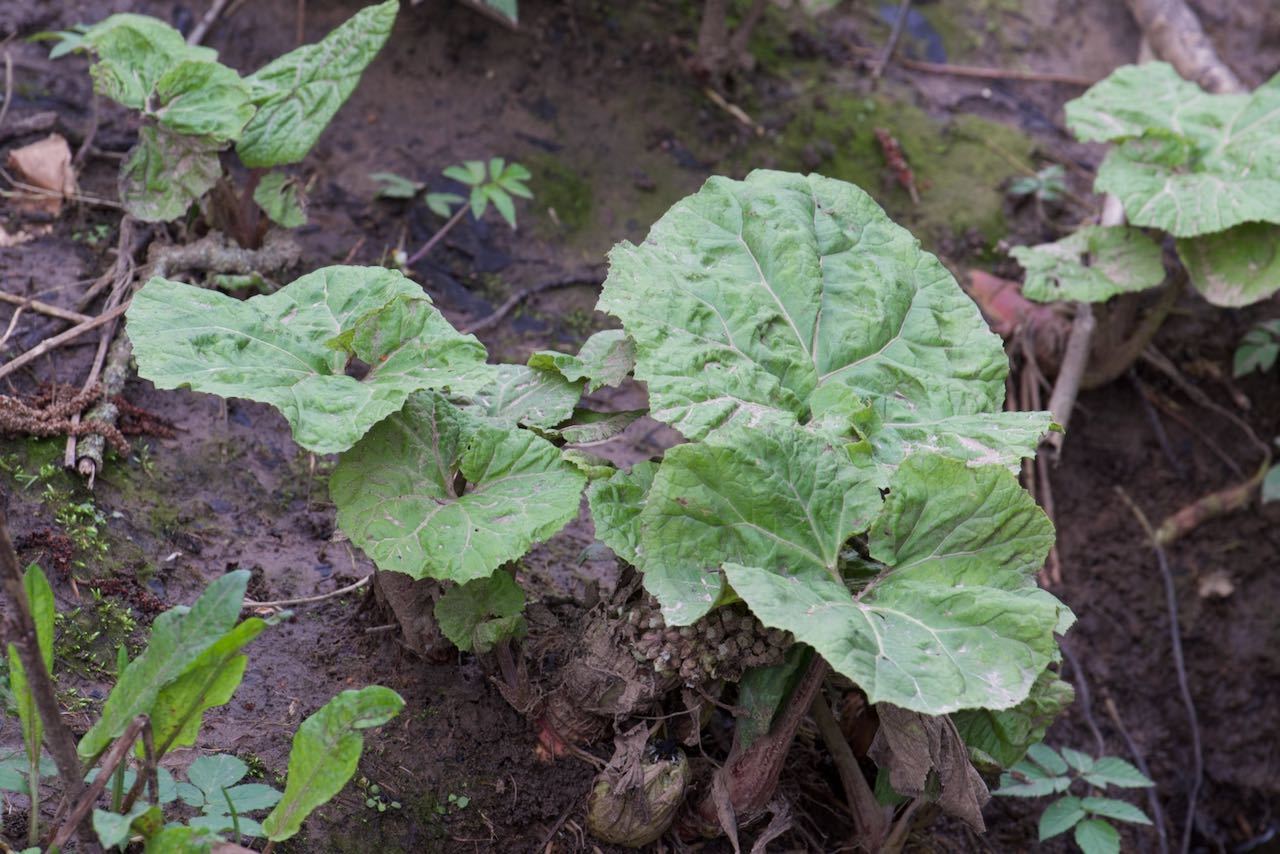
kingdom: Plantae
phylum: Tracheophyta
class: Magnoliopsida
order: Asterales
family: Asteraceae
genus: Petasites
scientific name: Petasites hybridus
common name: Butterbur
